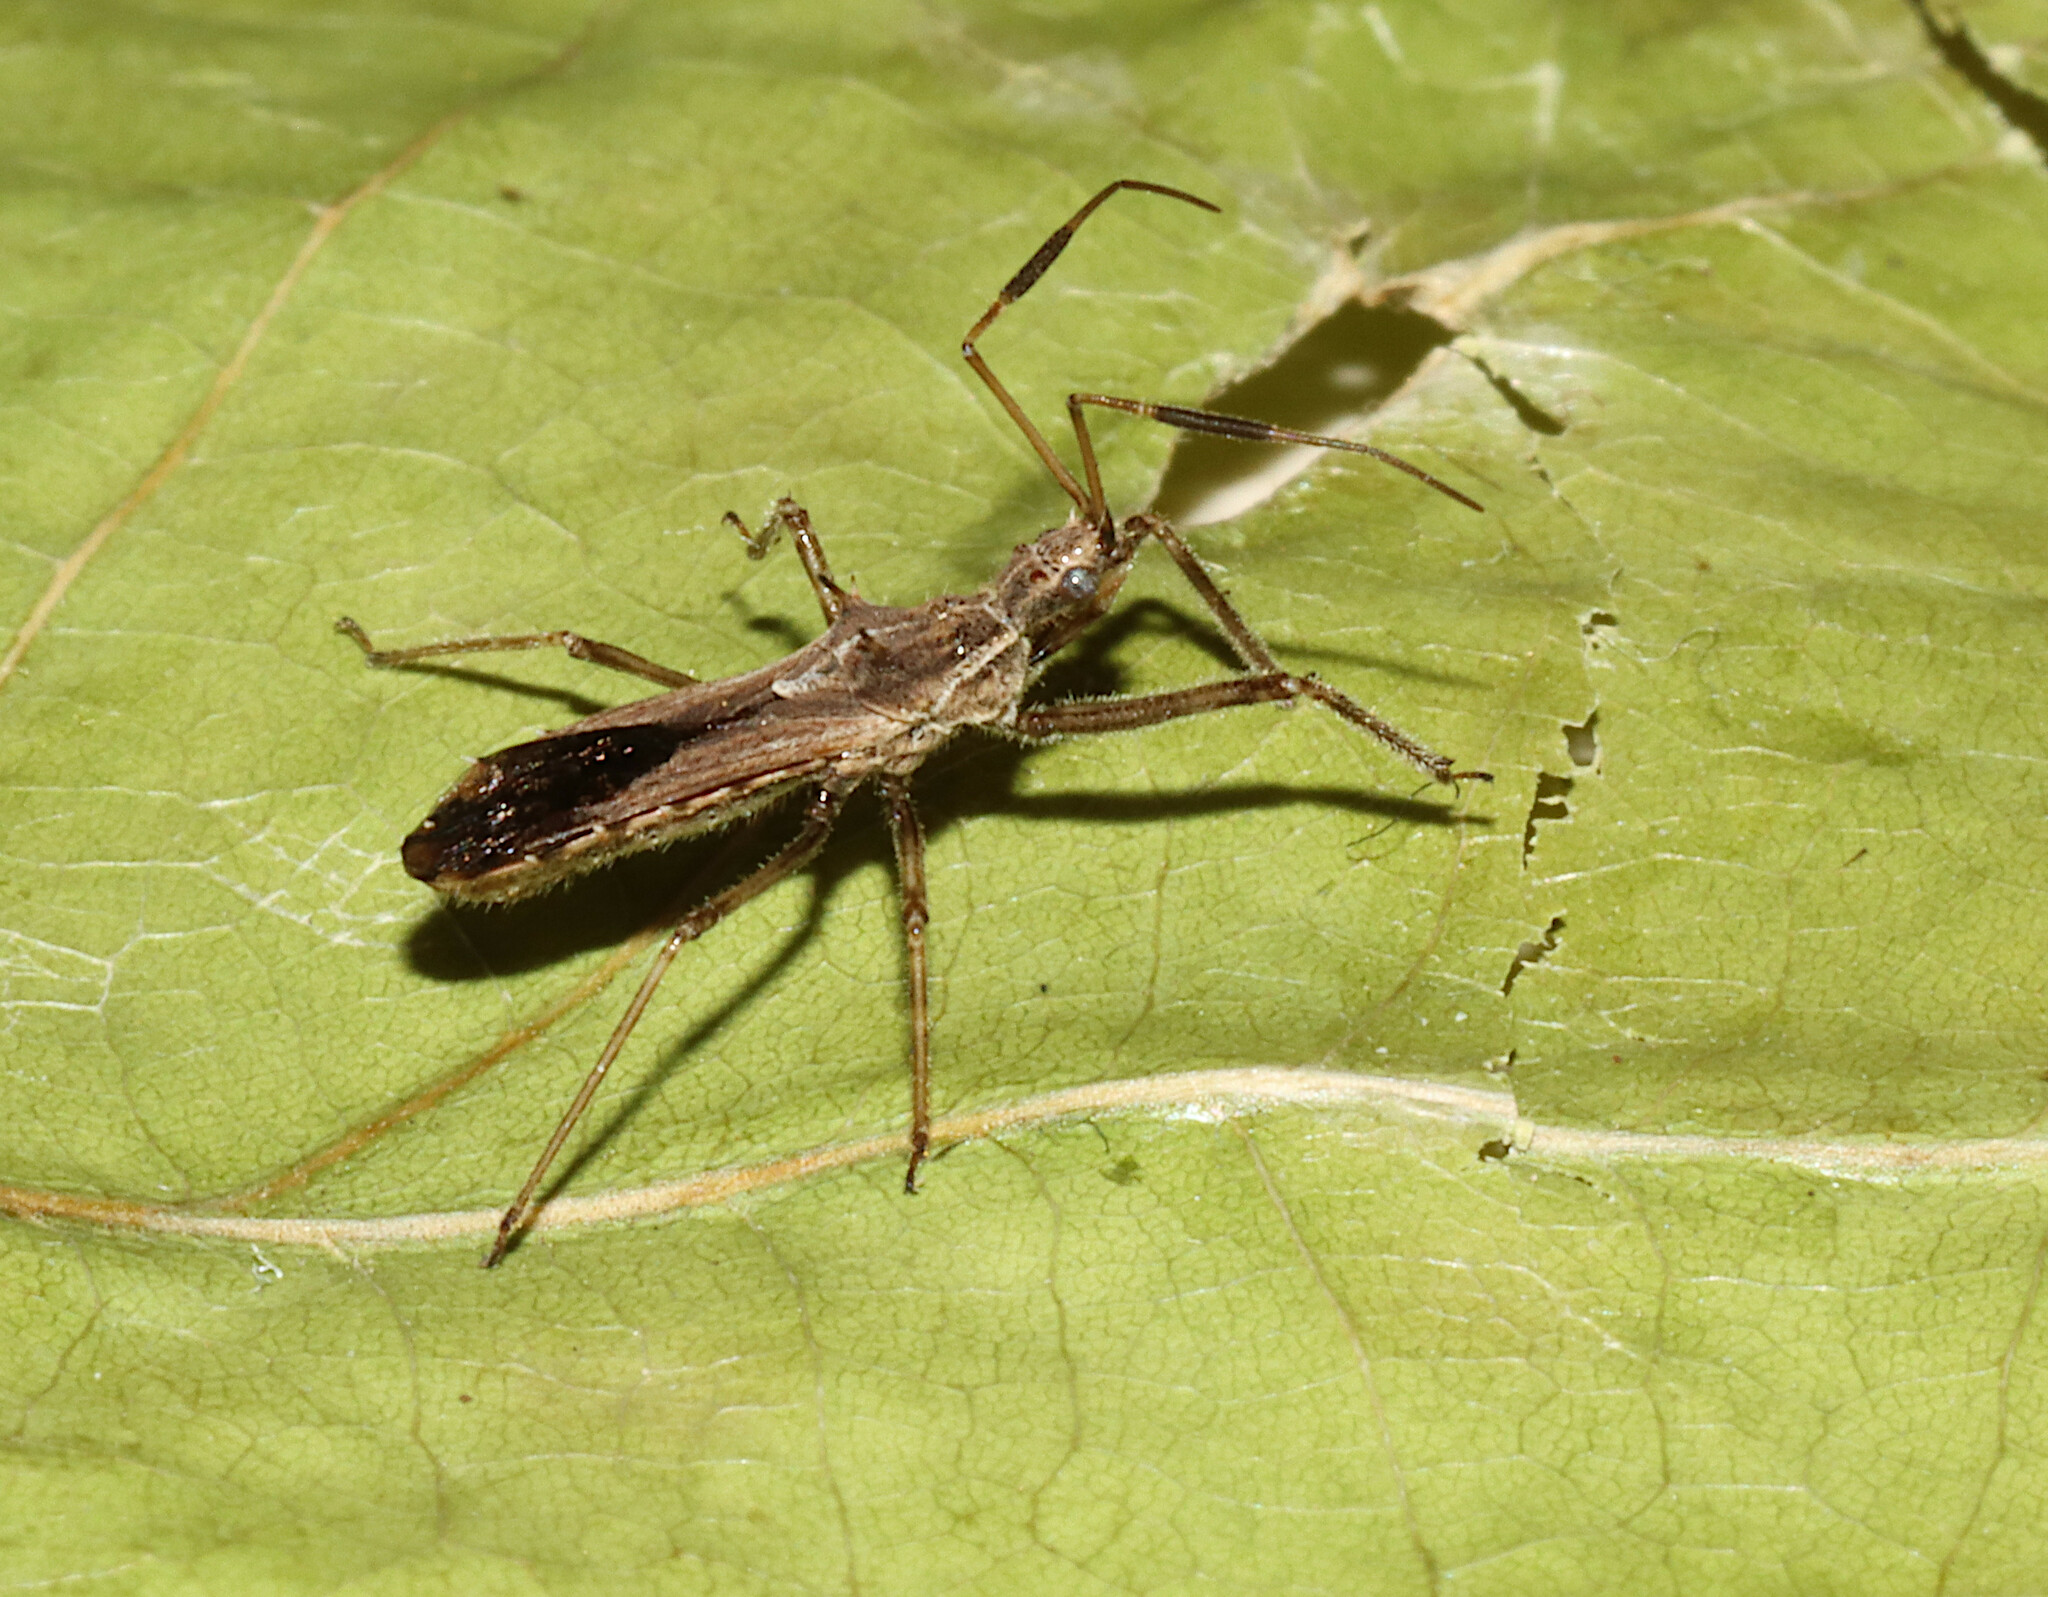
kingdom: Animalia
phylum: Arthropoda
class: Insecta
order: Hemiptera
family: Reduviidae
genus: Atrachelus
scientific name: Atrachelus cinereus
